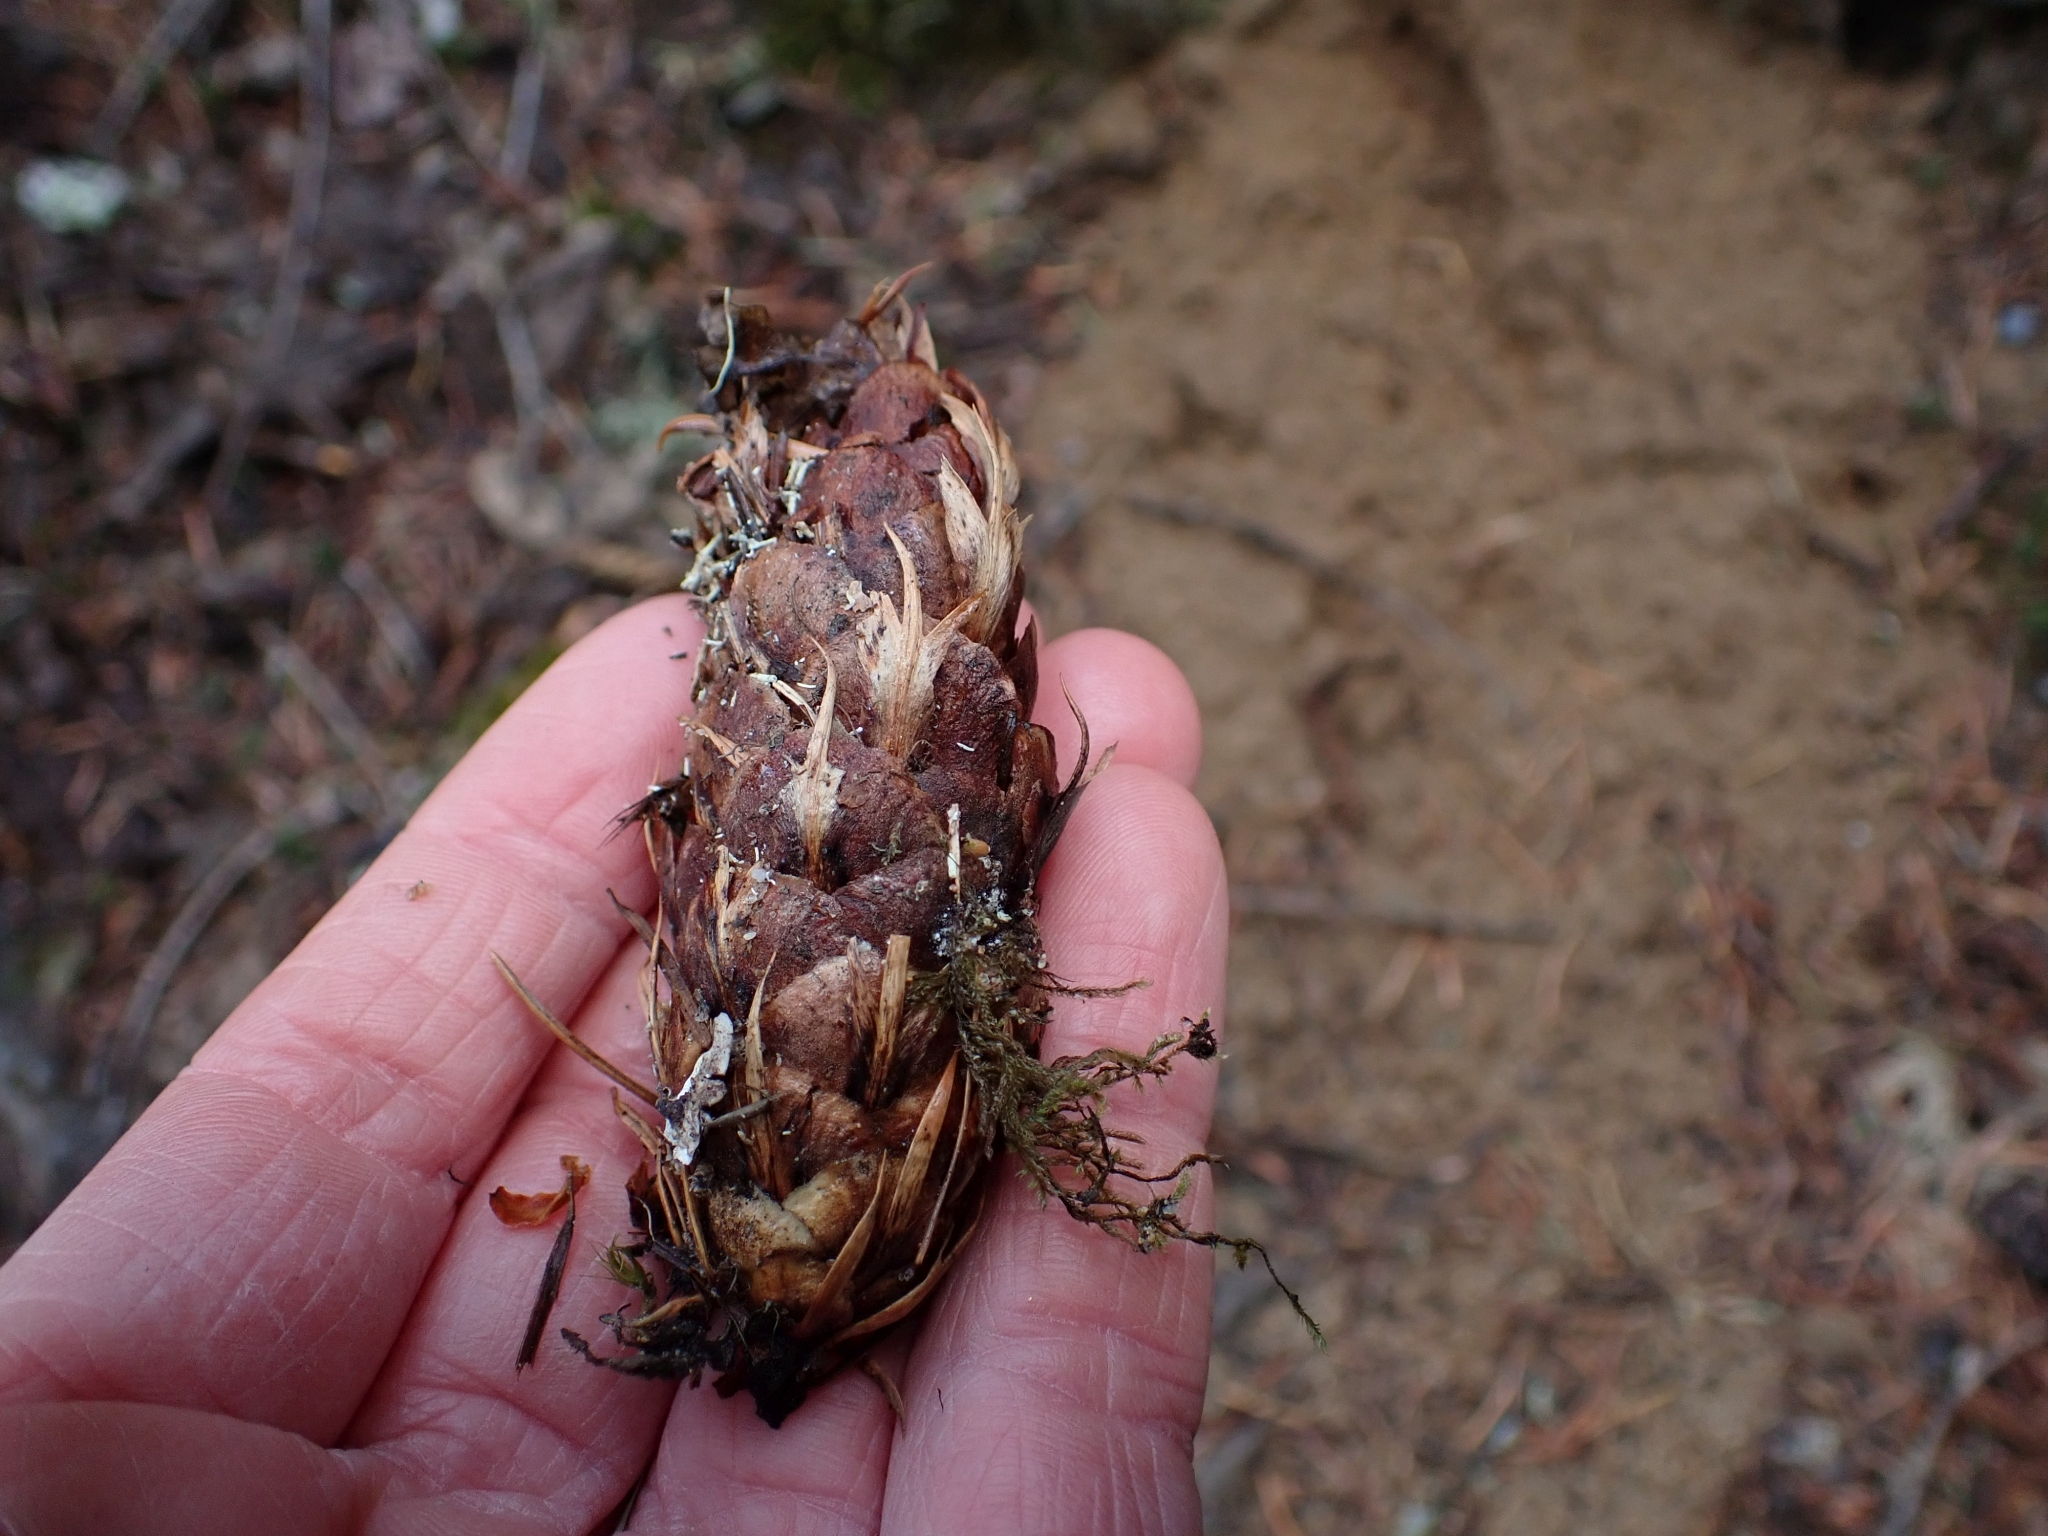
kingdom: Plantae
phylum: Tracheophyta
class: Pinopsida
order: Pinales
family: Pinaceae
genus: Pseudotsuga
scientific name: Pseudotsuga menziesii
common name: Douglas fir
